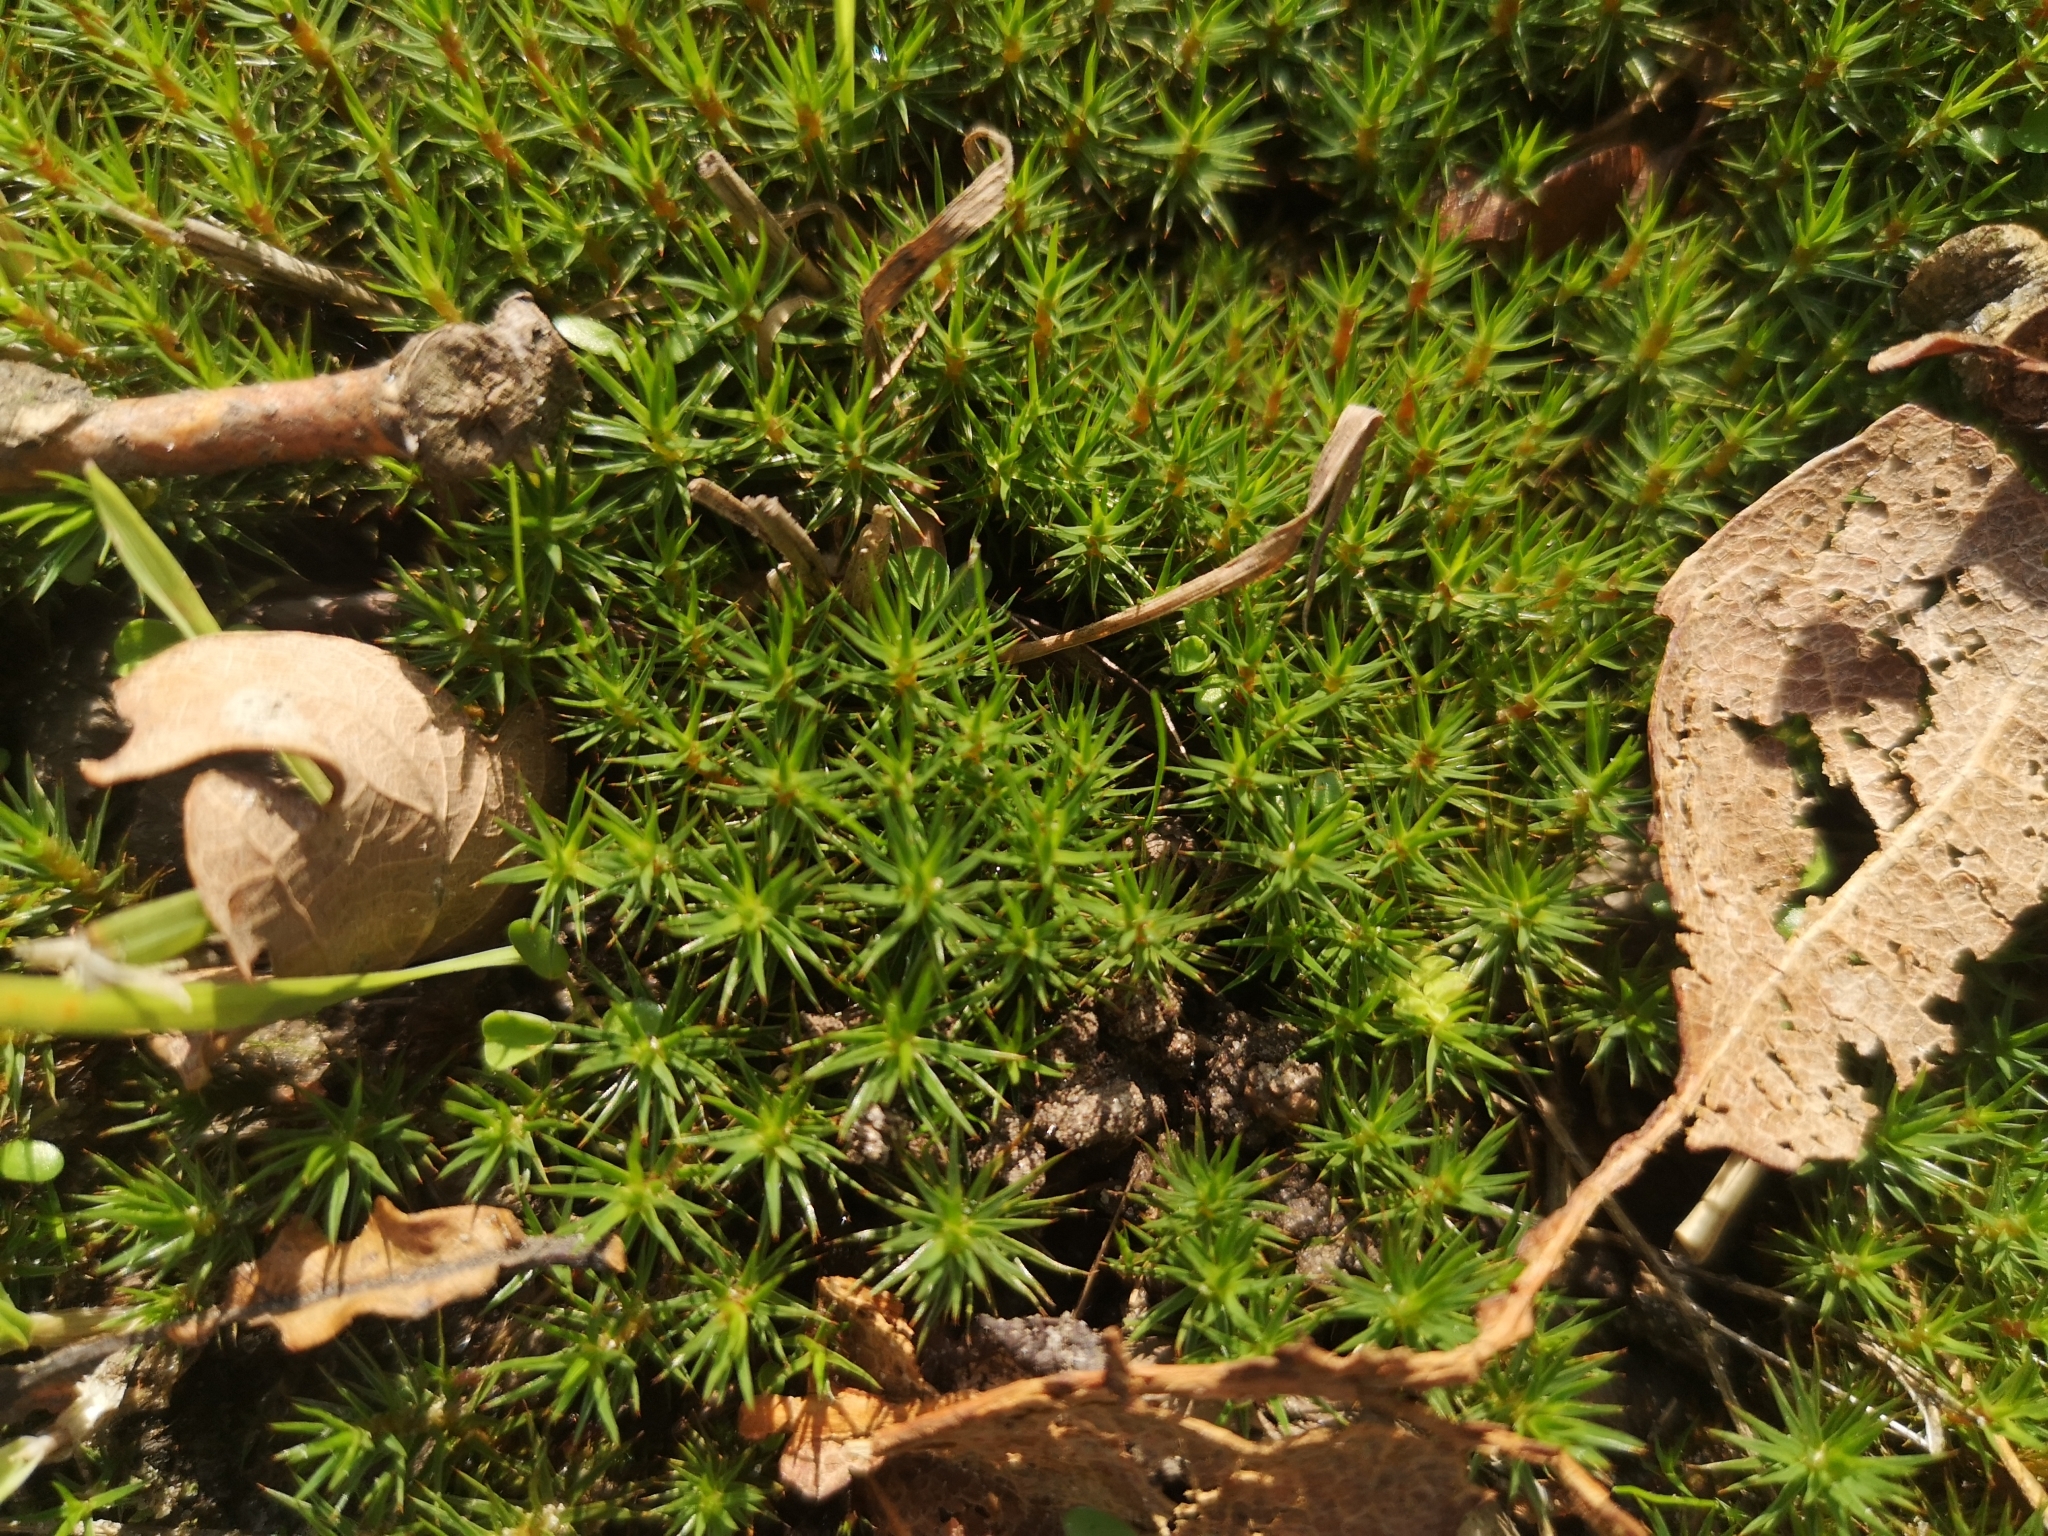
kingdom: Plantae
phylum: Bryophyta
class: Polytrichopsida
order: Polytrichales
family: Polytrichaceae
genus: Polytrichum
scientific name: Polytrichum juniperinum
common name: Juniper haircap moss
